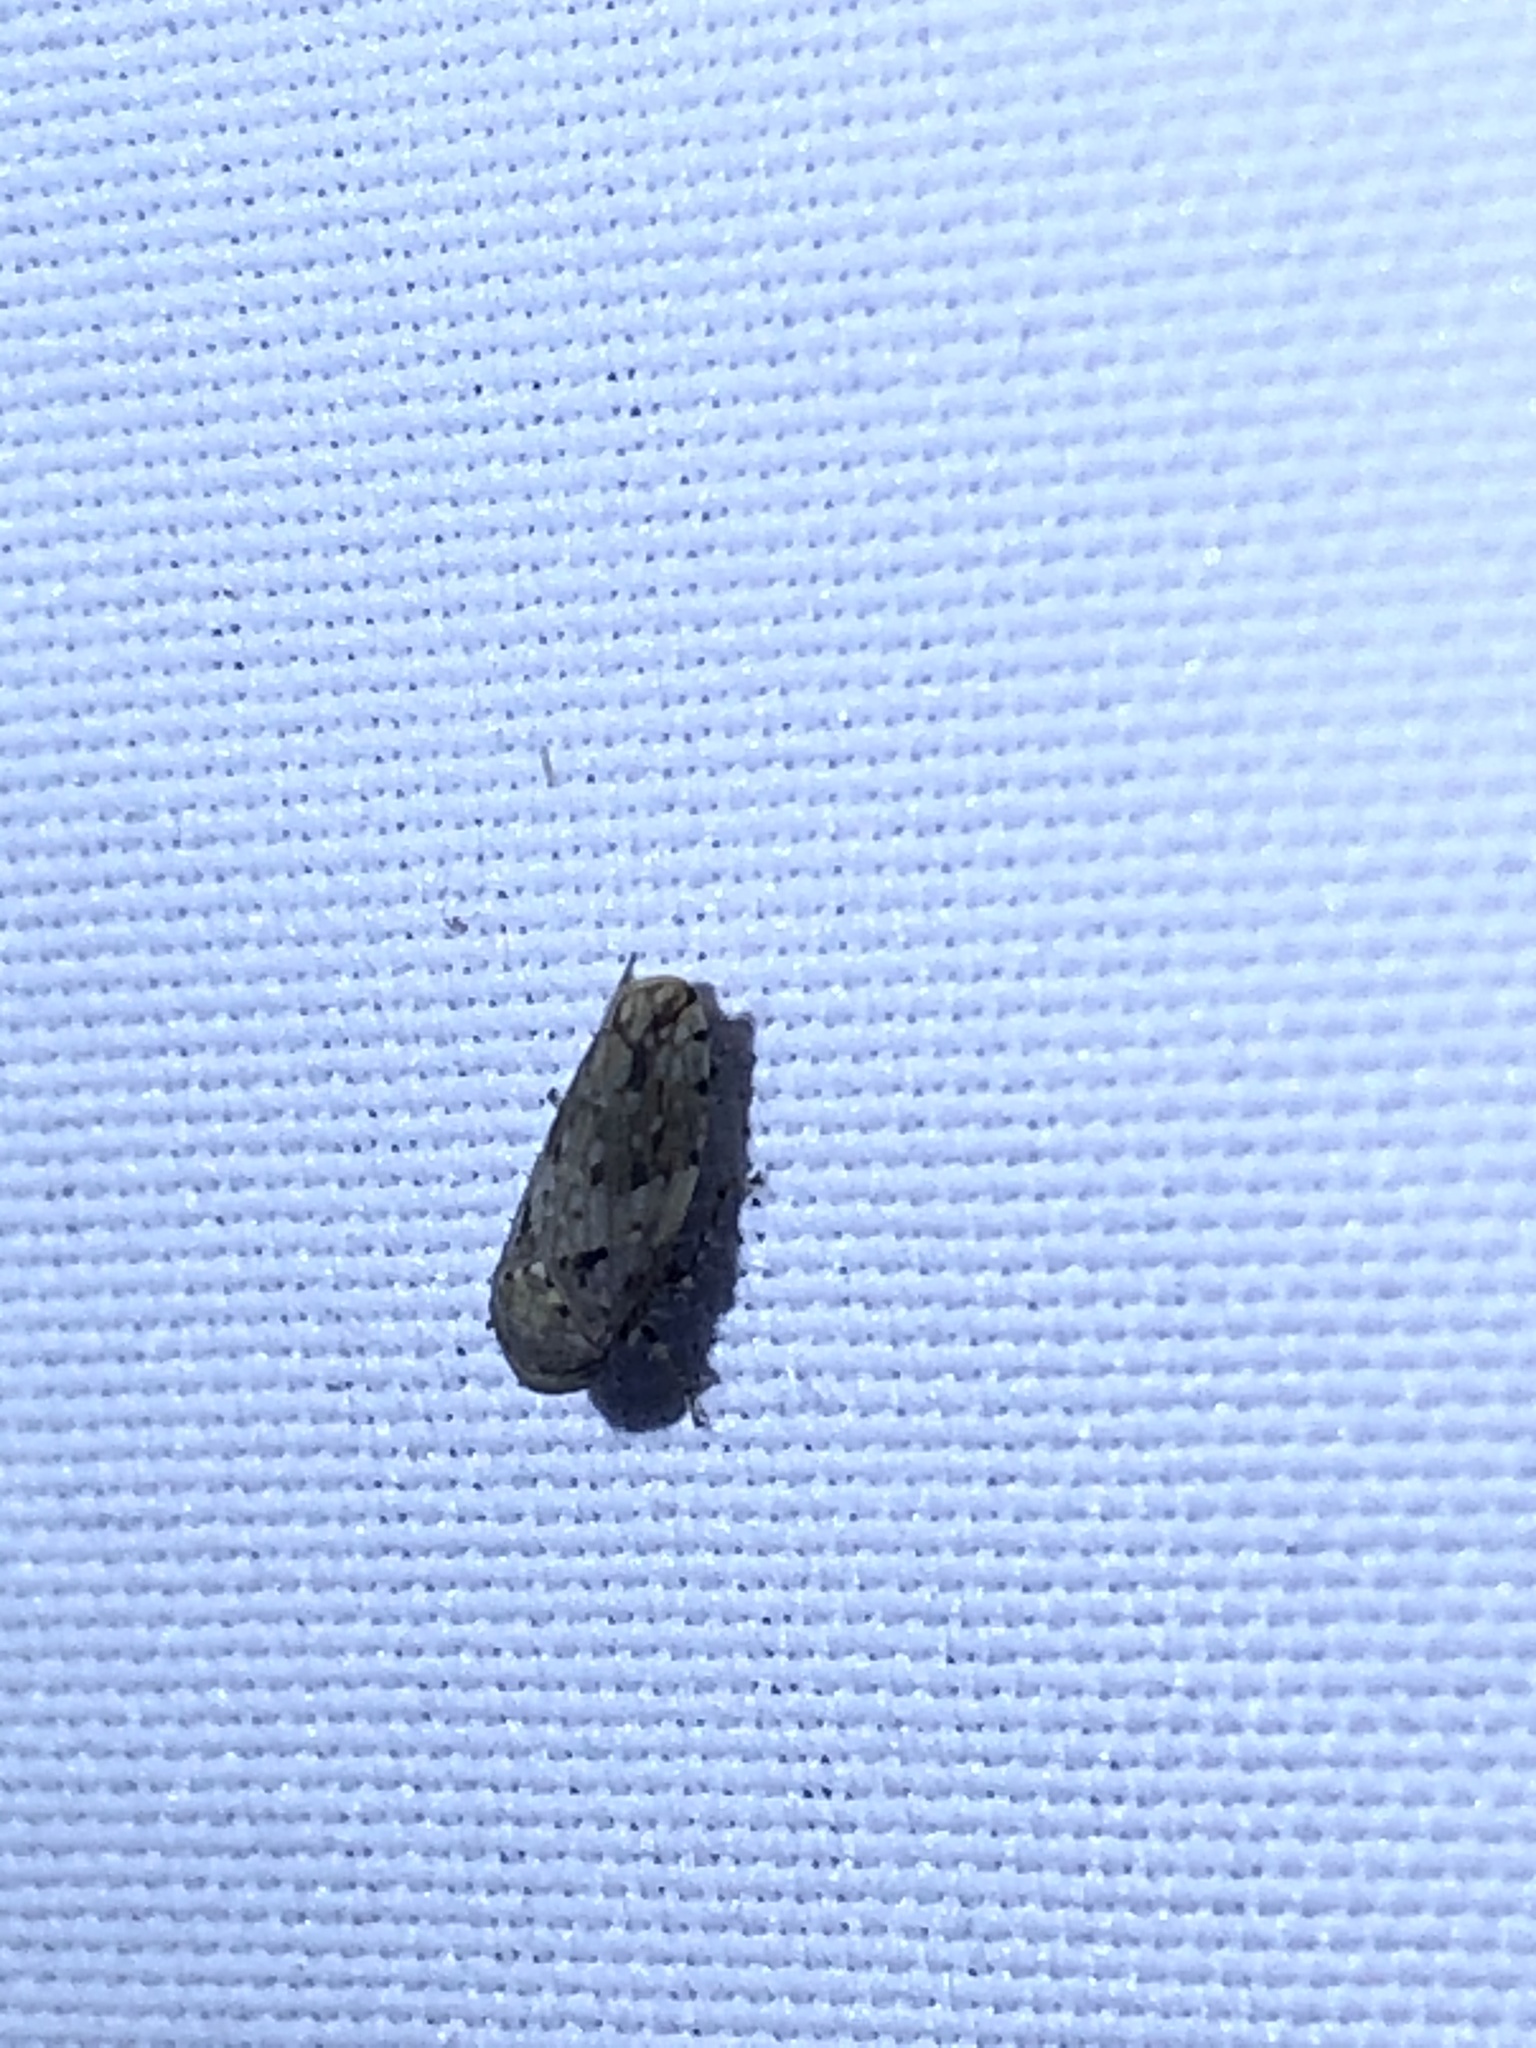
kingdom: Animalia
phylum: Arthropoda
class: Insecta
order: Hemiptera
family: Cicadellidae
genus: Menosoma
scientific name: Menosoma cinctum
